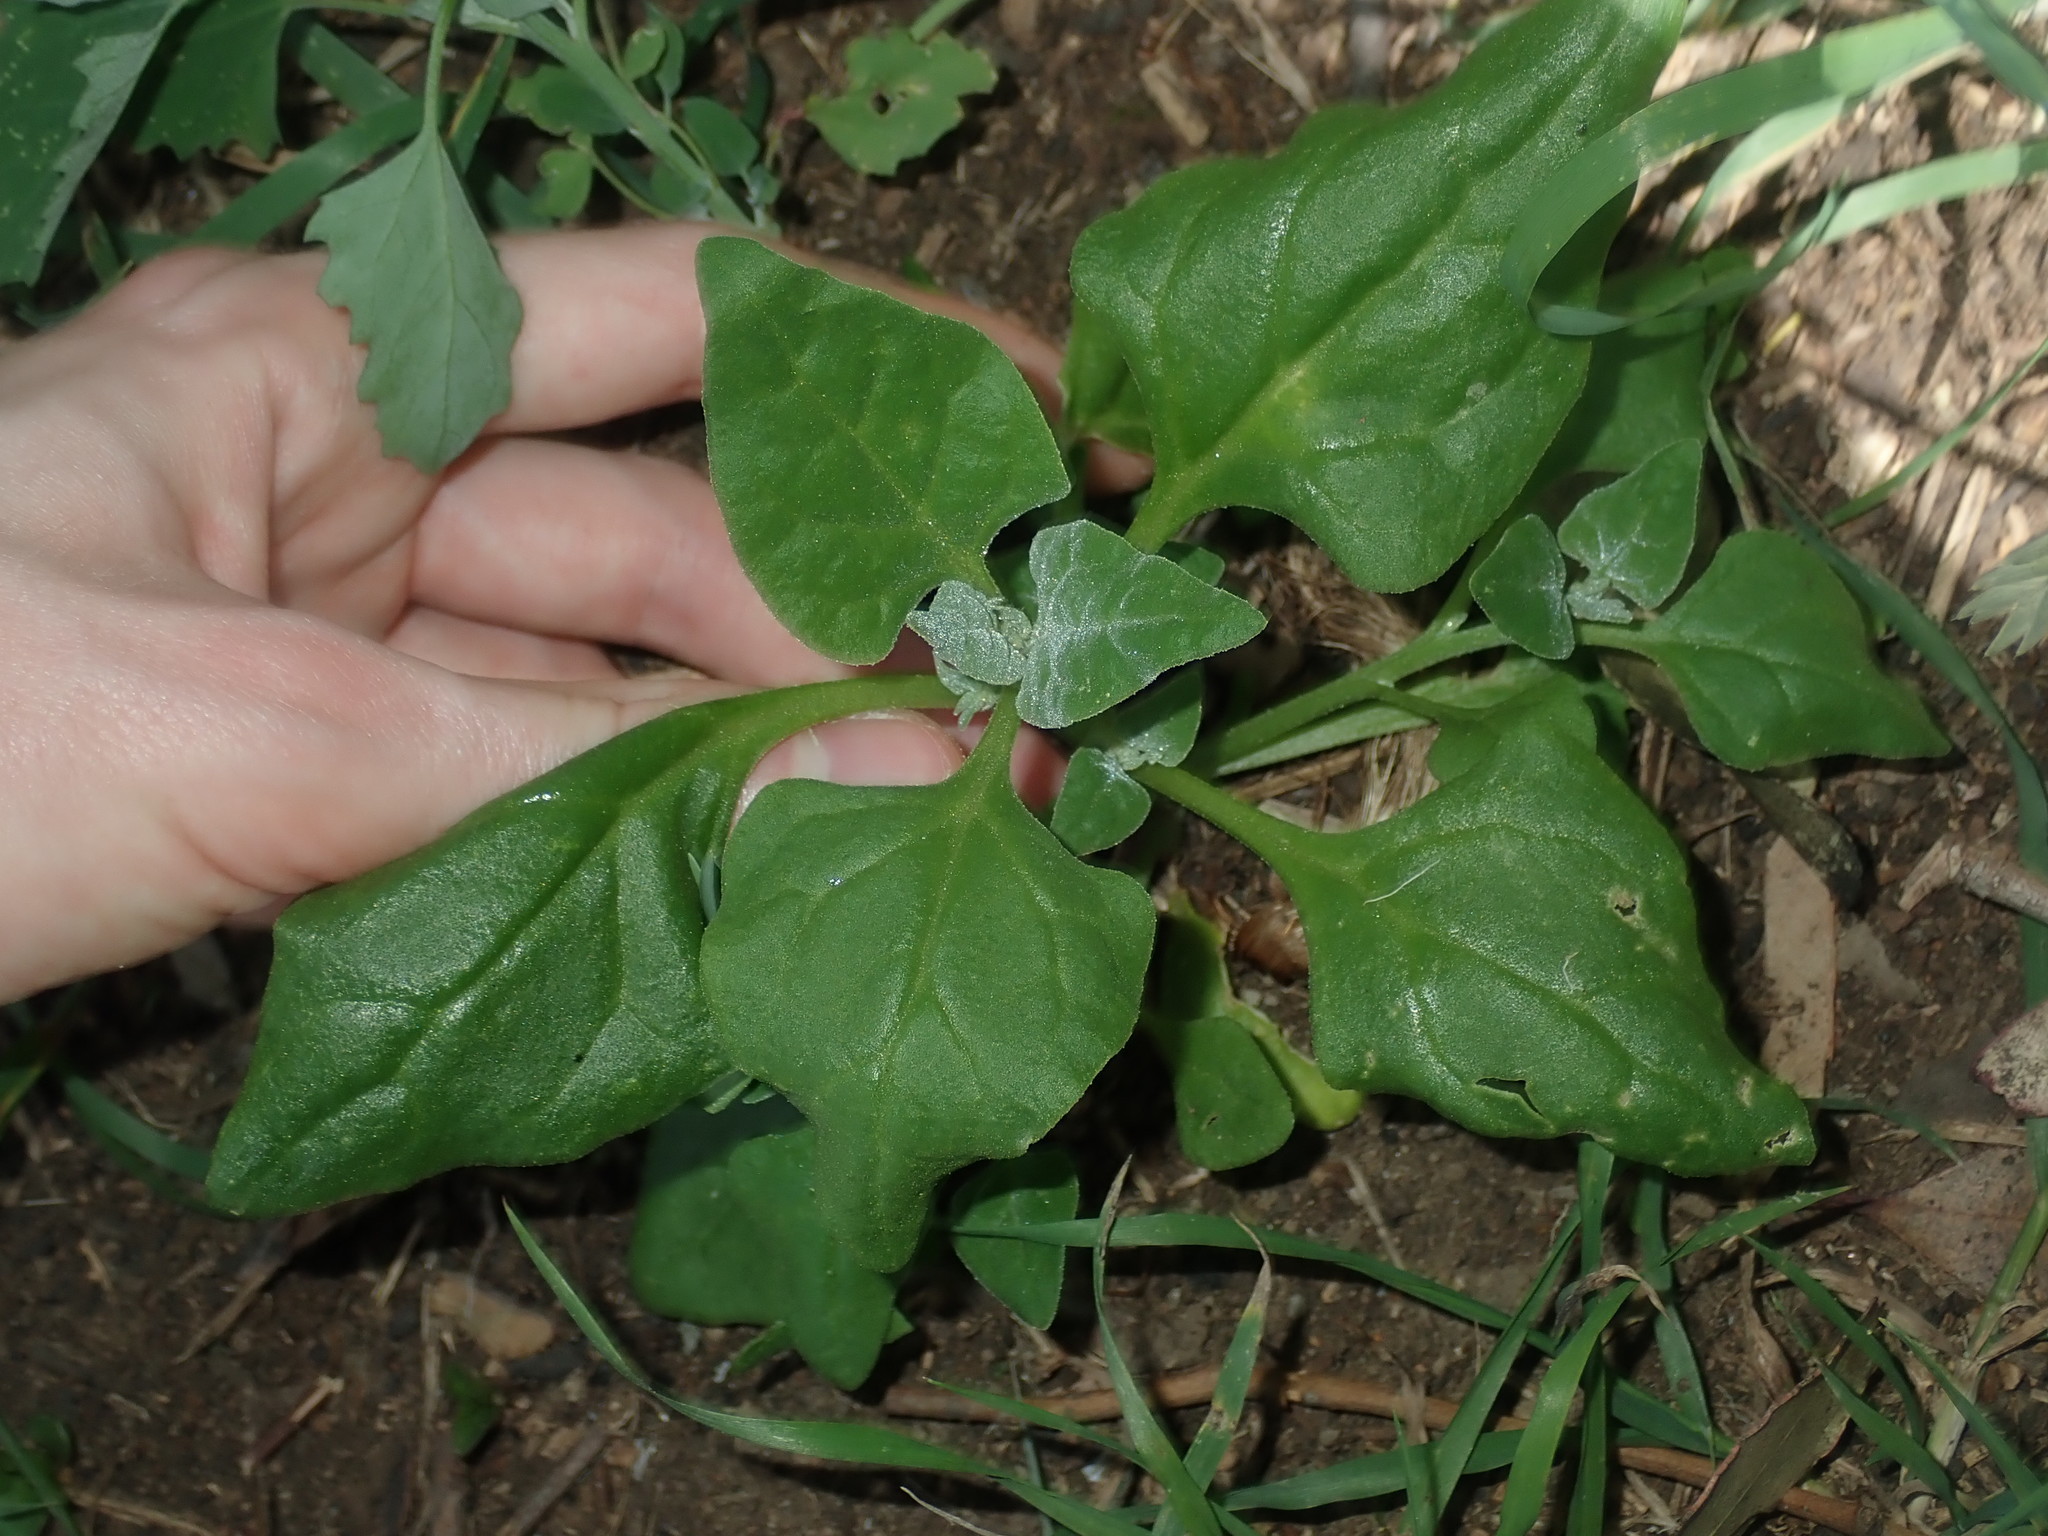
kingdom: Plantae
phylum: Tracheophyta
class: Magnoliopsida
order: Caryophyllales
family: Aizoaceae
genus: Tetragonia
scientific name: Tetragonia tetragonoides
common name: New zealand-spinach
